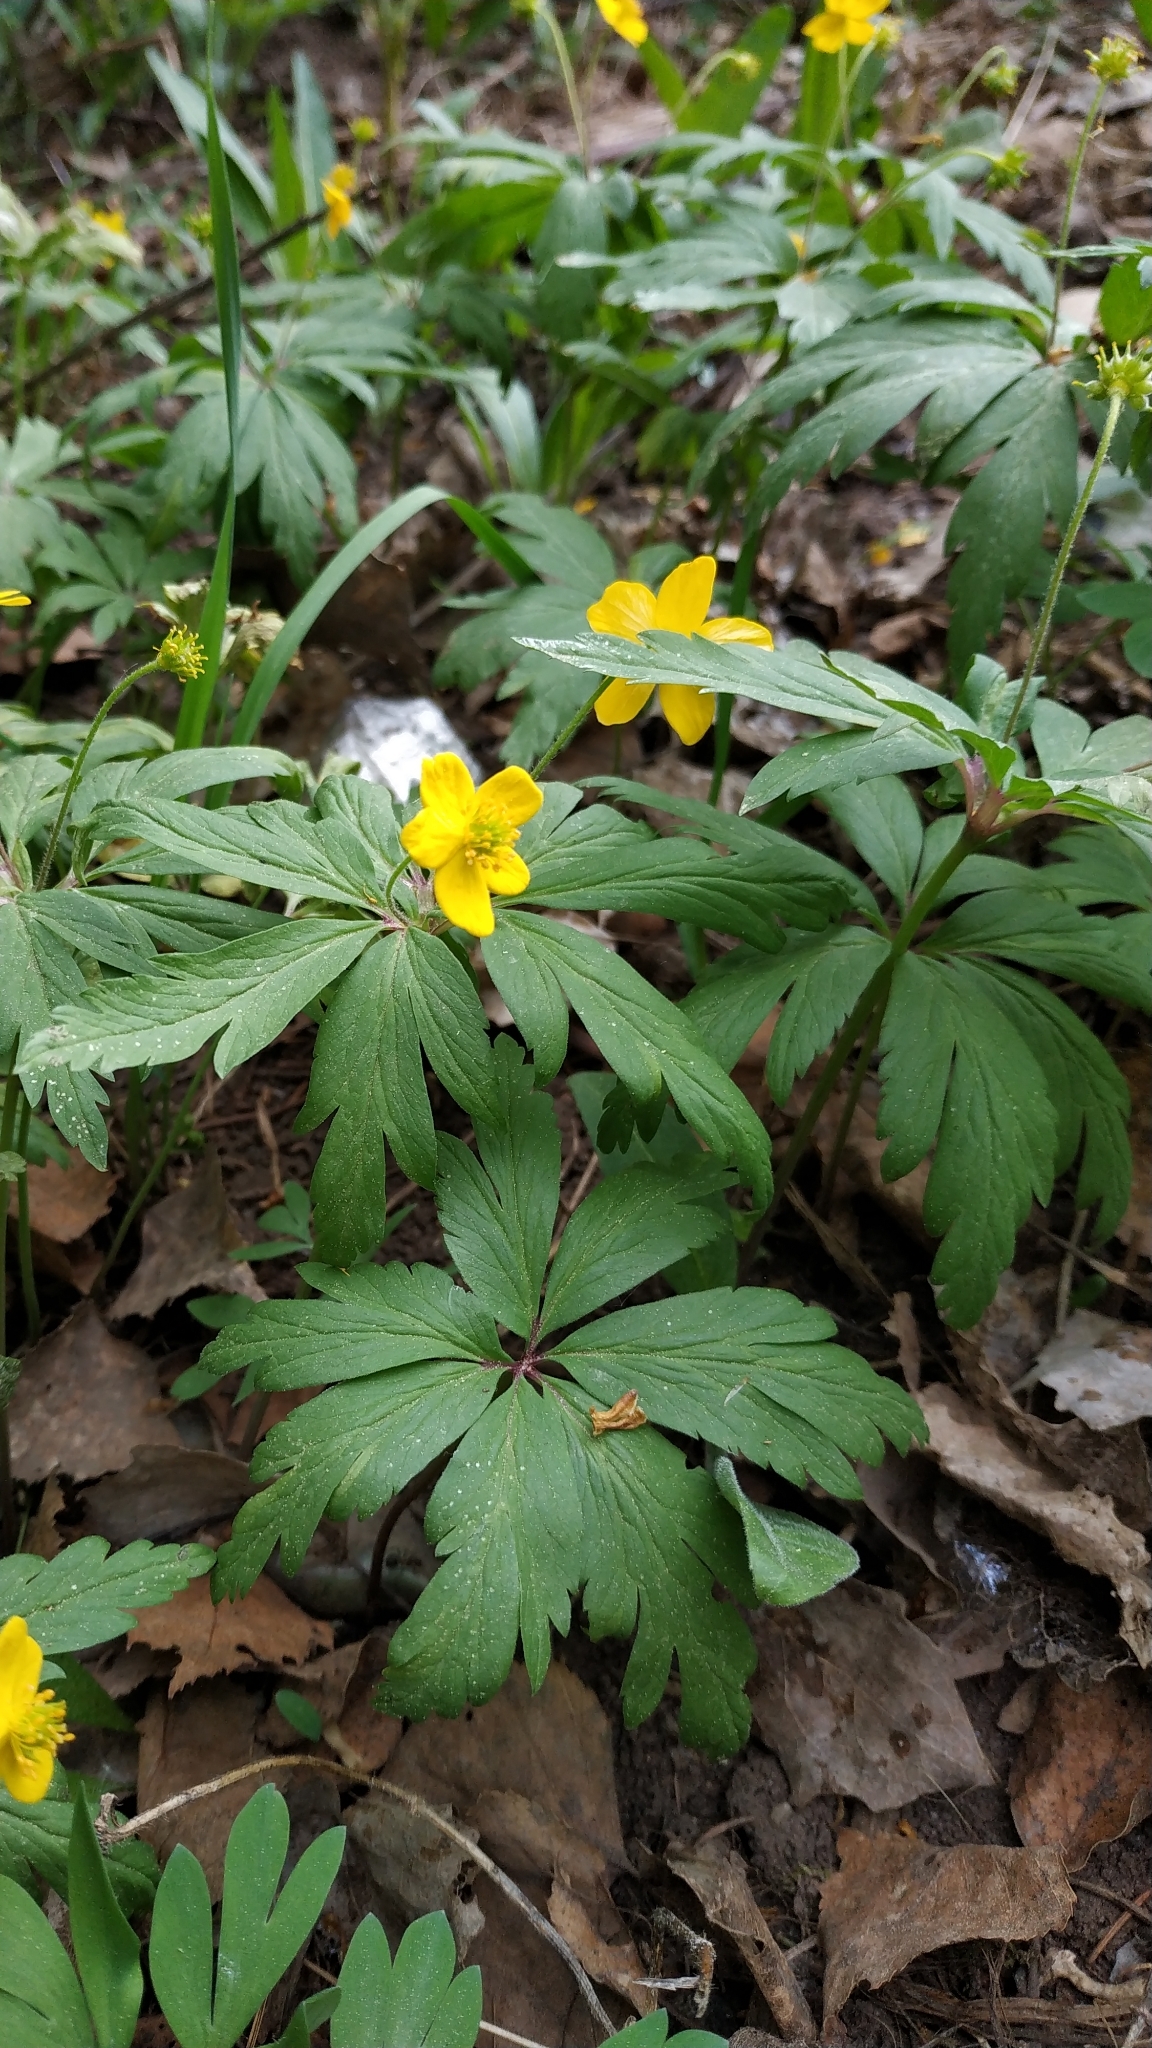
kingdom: Plantae
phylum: Tracheophyta
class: Magnoliopsida
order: Ranunculales
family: Ranunculaceae
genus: Anemone
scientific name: Anemone ranunculoides
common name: Yellow anemone
